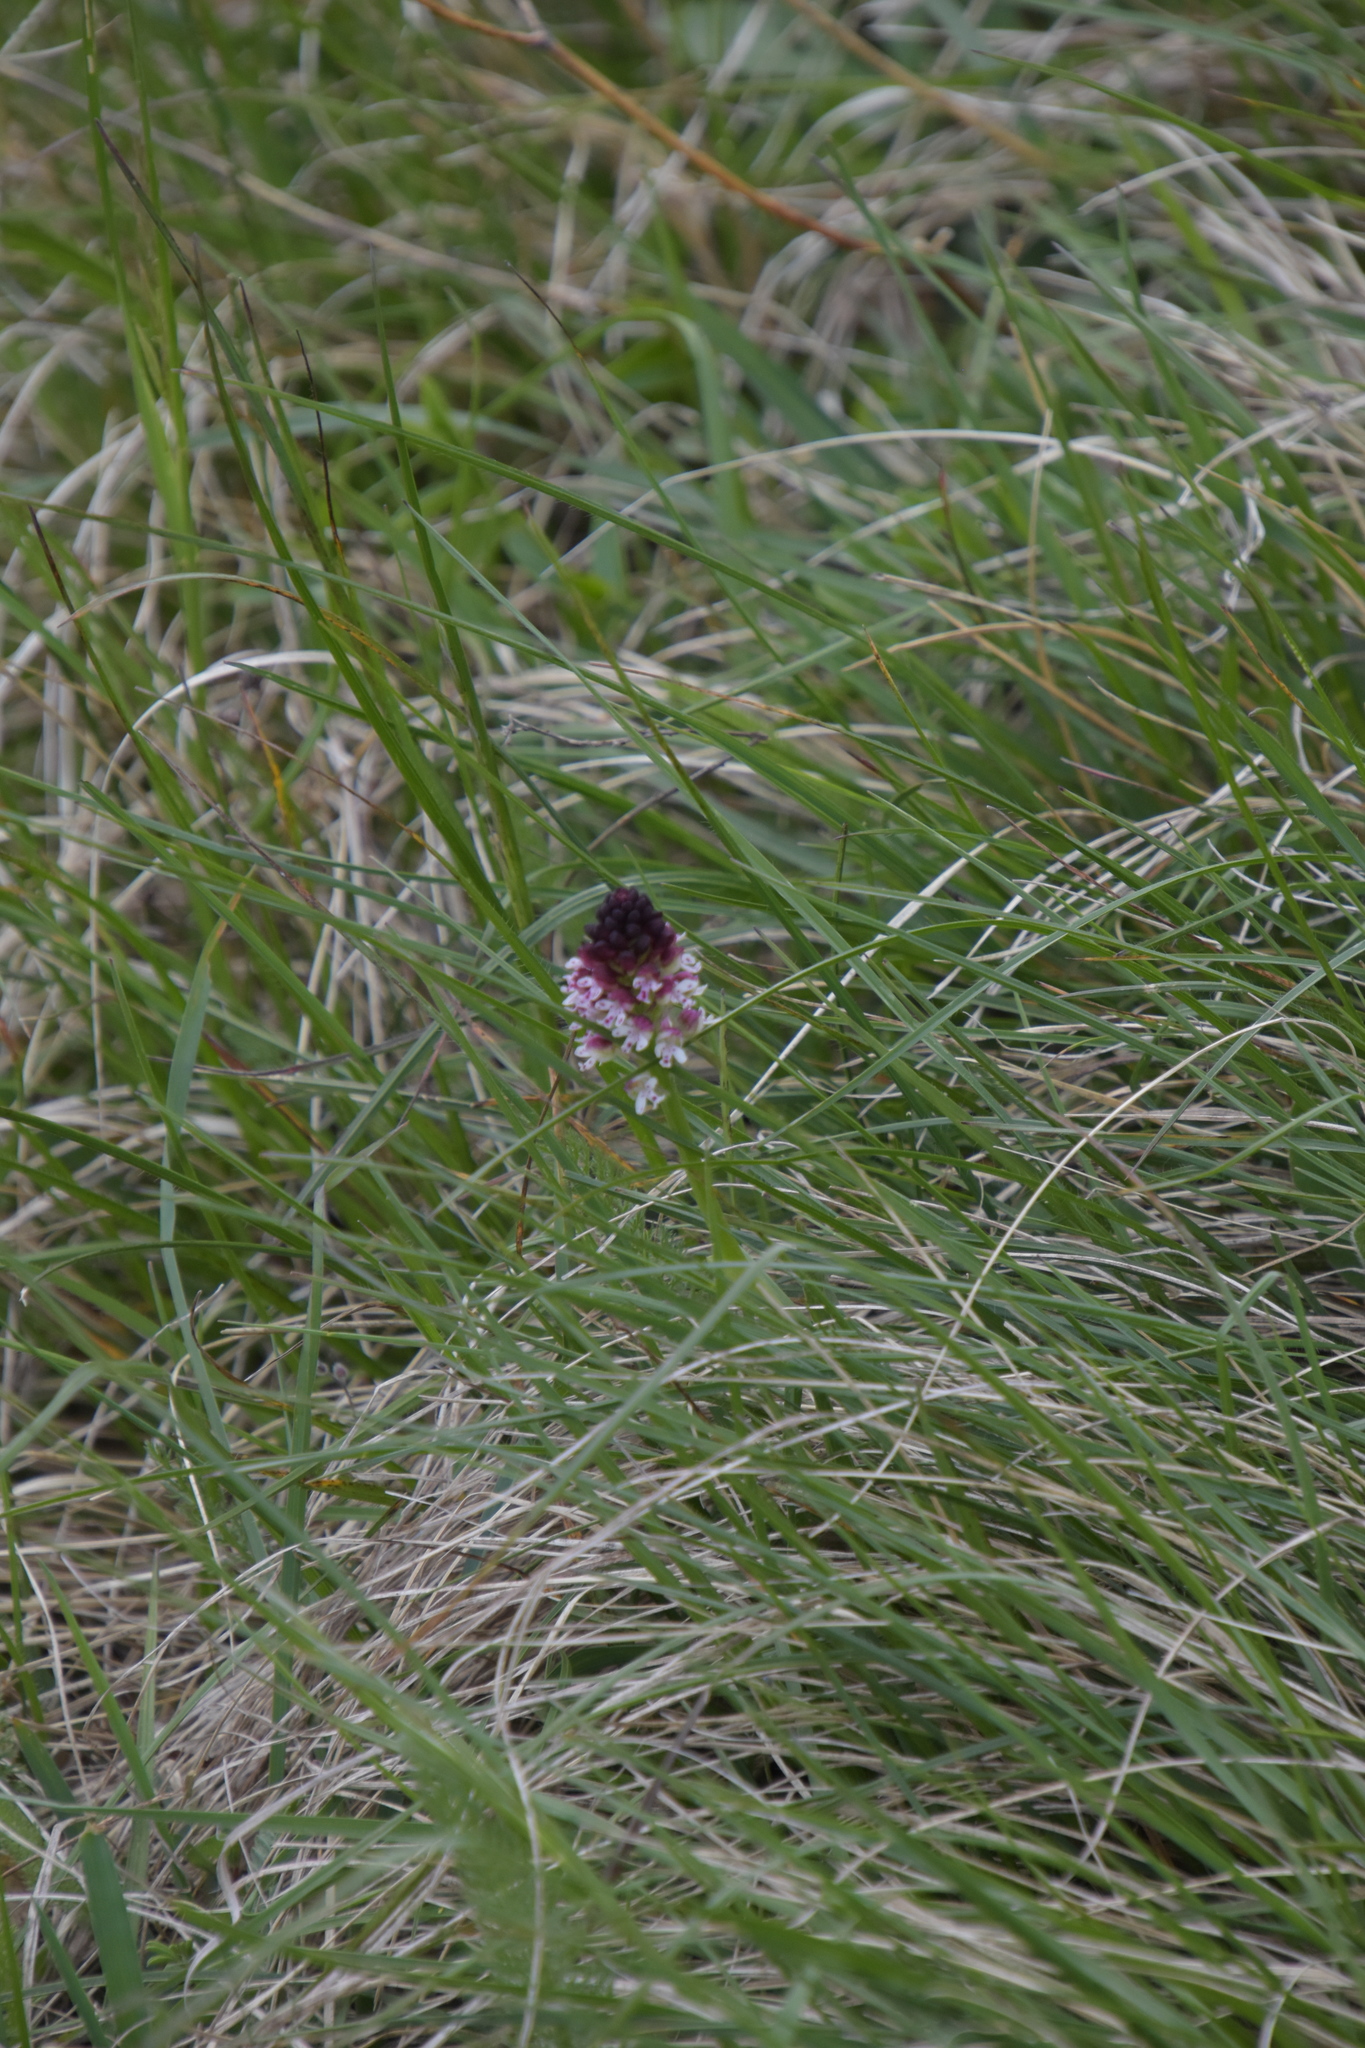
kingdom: Plantae
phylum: Tracheophyta
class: Liliopsida
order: Asparagales
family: Orchidaceae
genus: Neotinea
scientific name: Neotinea ustulata
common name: Burnt orchid
